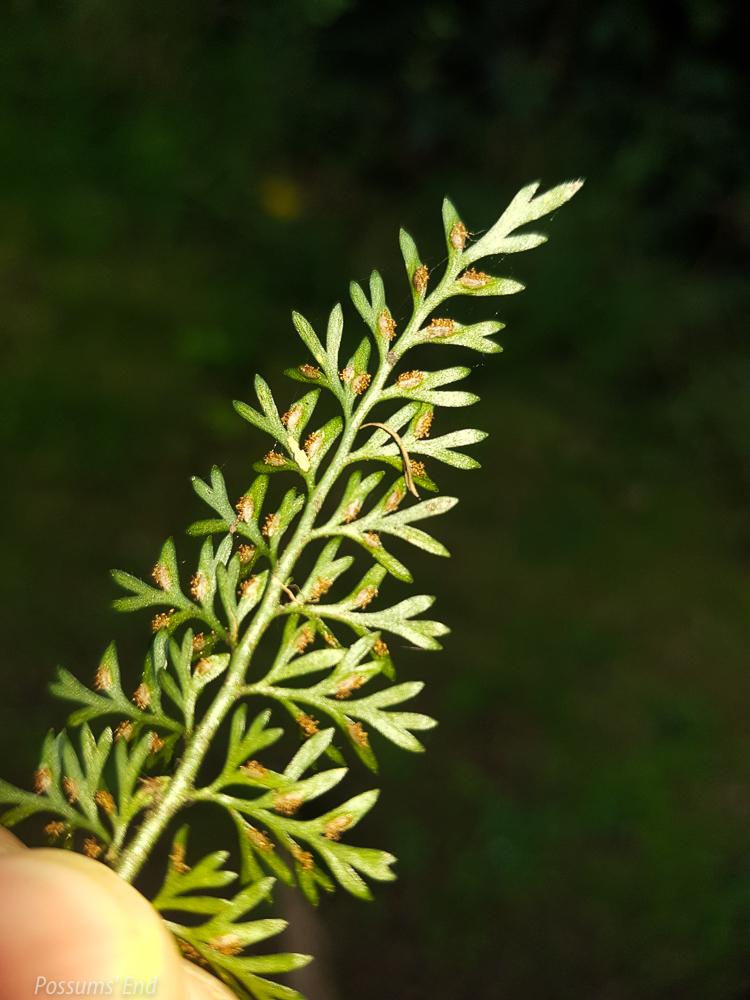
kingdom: Plantae
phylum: Tracheophyta
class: Polypodiopsida
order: Polypodiales
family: Aspleniaceae
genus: Asplenium
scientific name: Asplenium richardii
